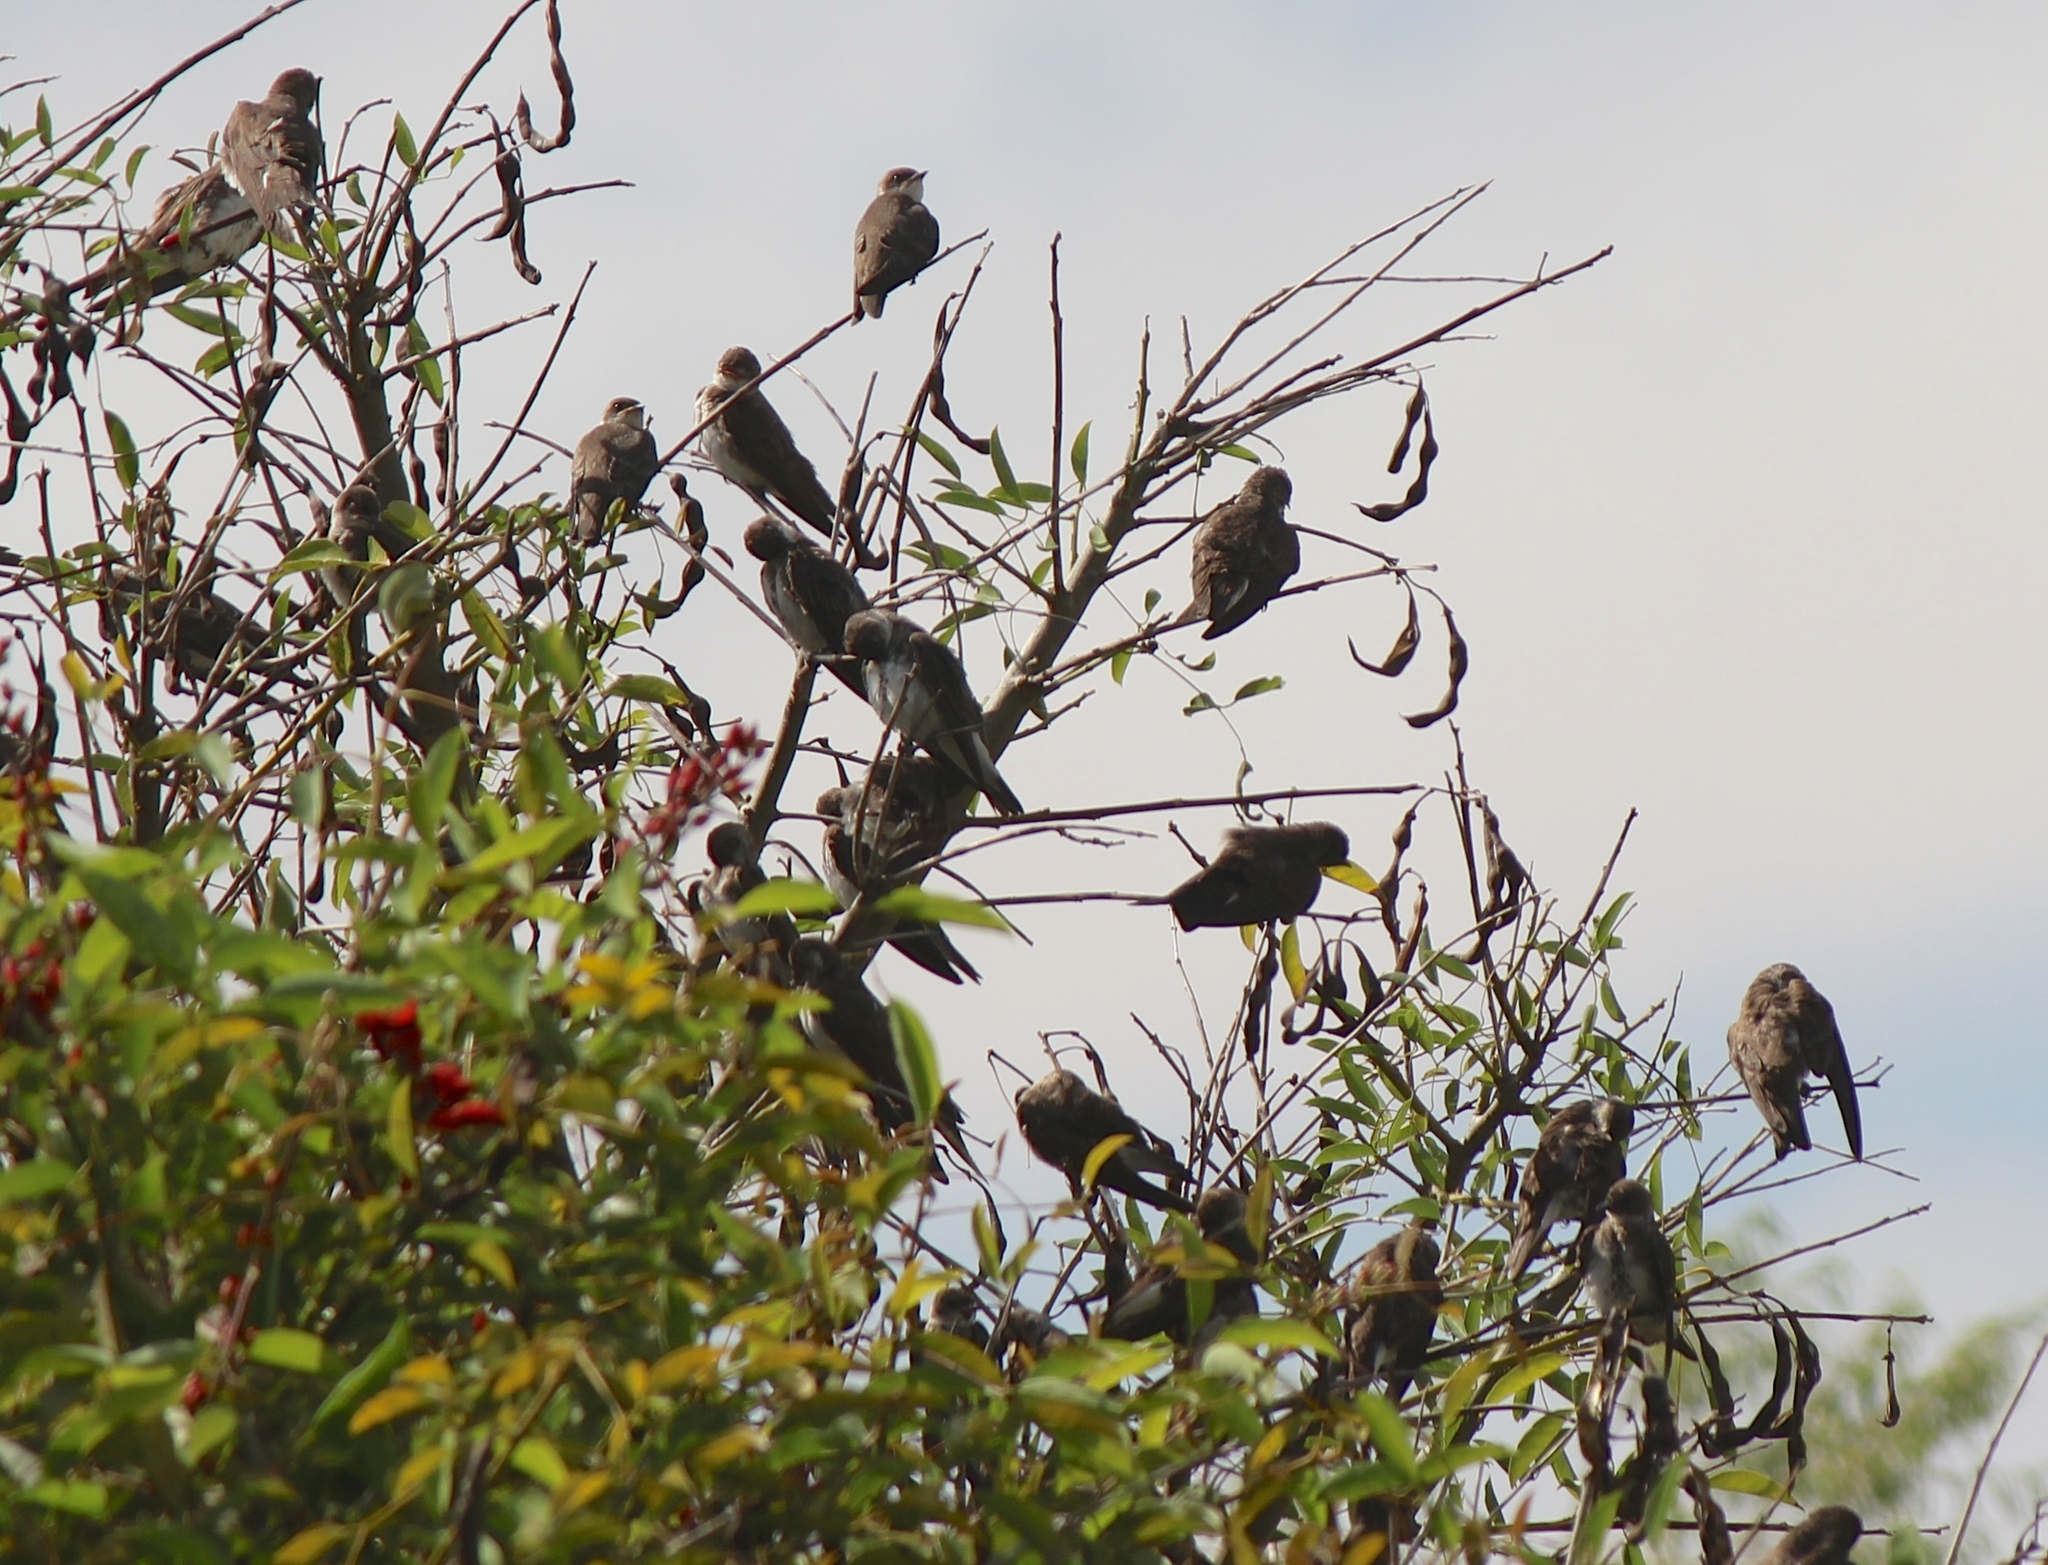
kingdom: Animalia
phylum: Chordata
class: Aves
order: Passeriformes
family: Hirundinidae
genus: Progne
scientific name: Progne tapera
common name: Brown-chested martin
